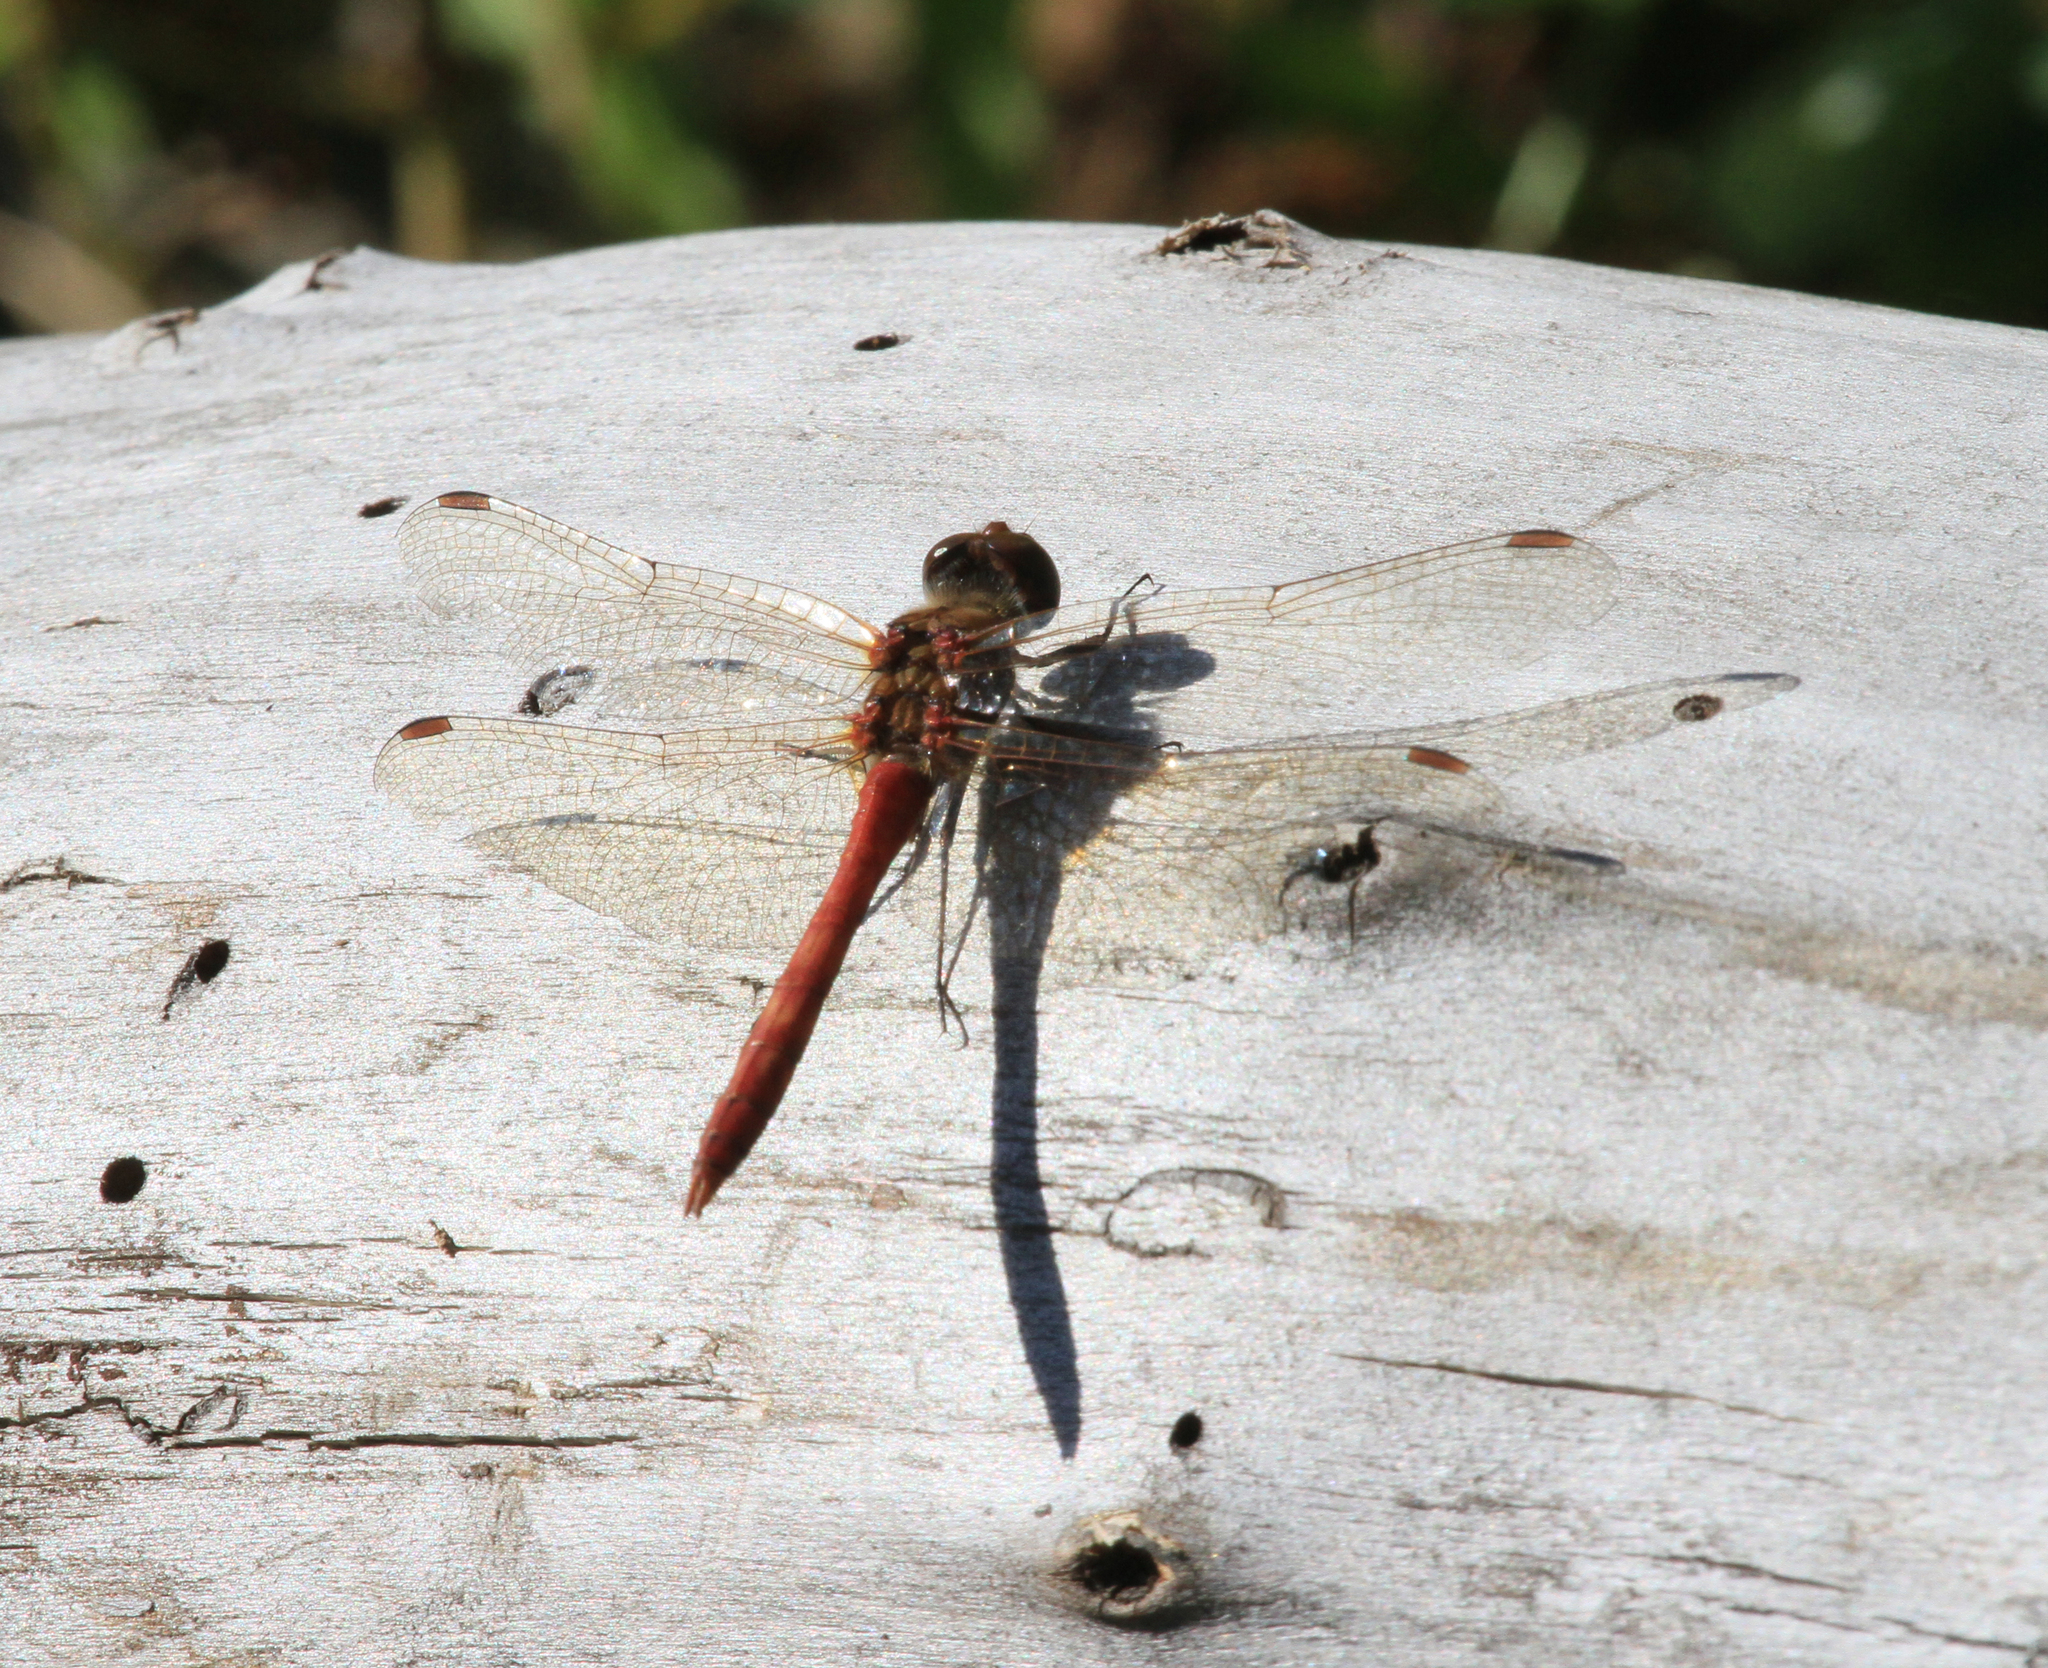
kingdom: Animalia
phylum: Arthropoda
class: Insecta
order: Odonata
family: Libellulidae
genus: Sympetrum
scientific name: Sympetrum vulgatum
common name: Vagrant darter
